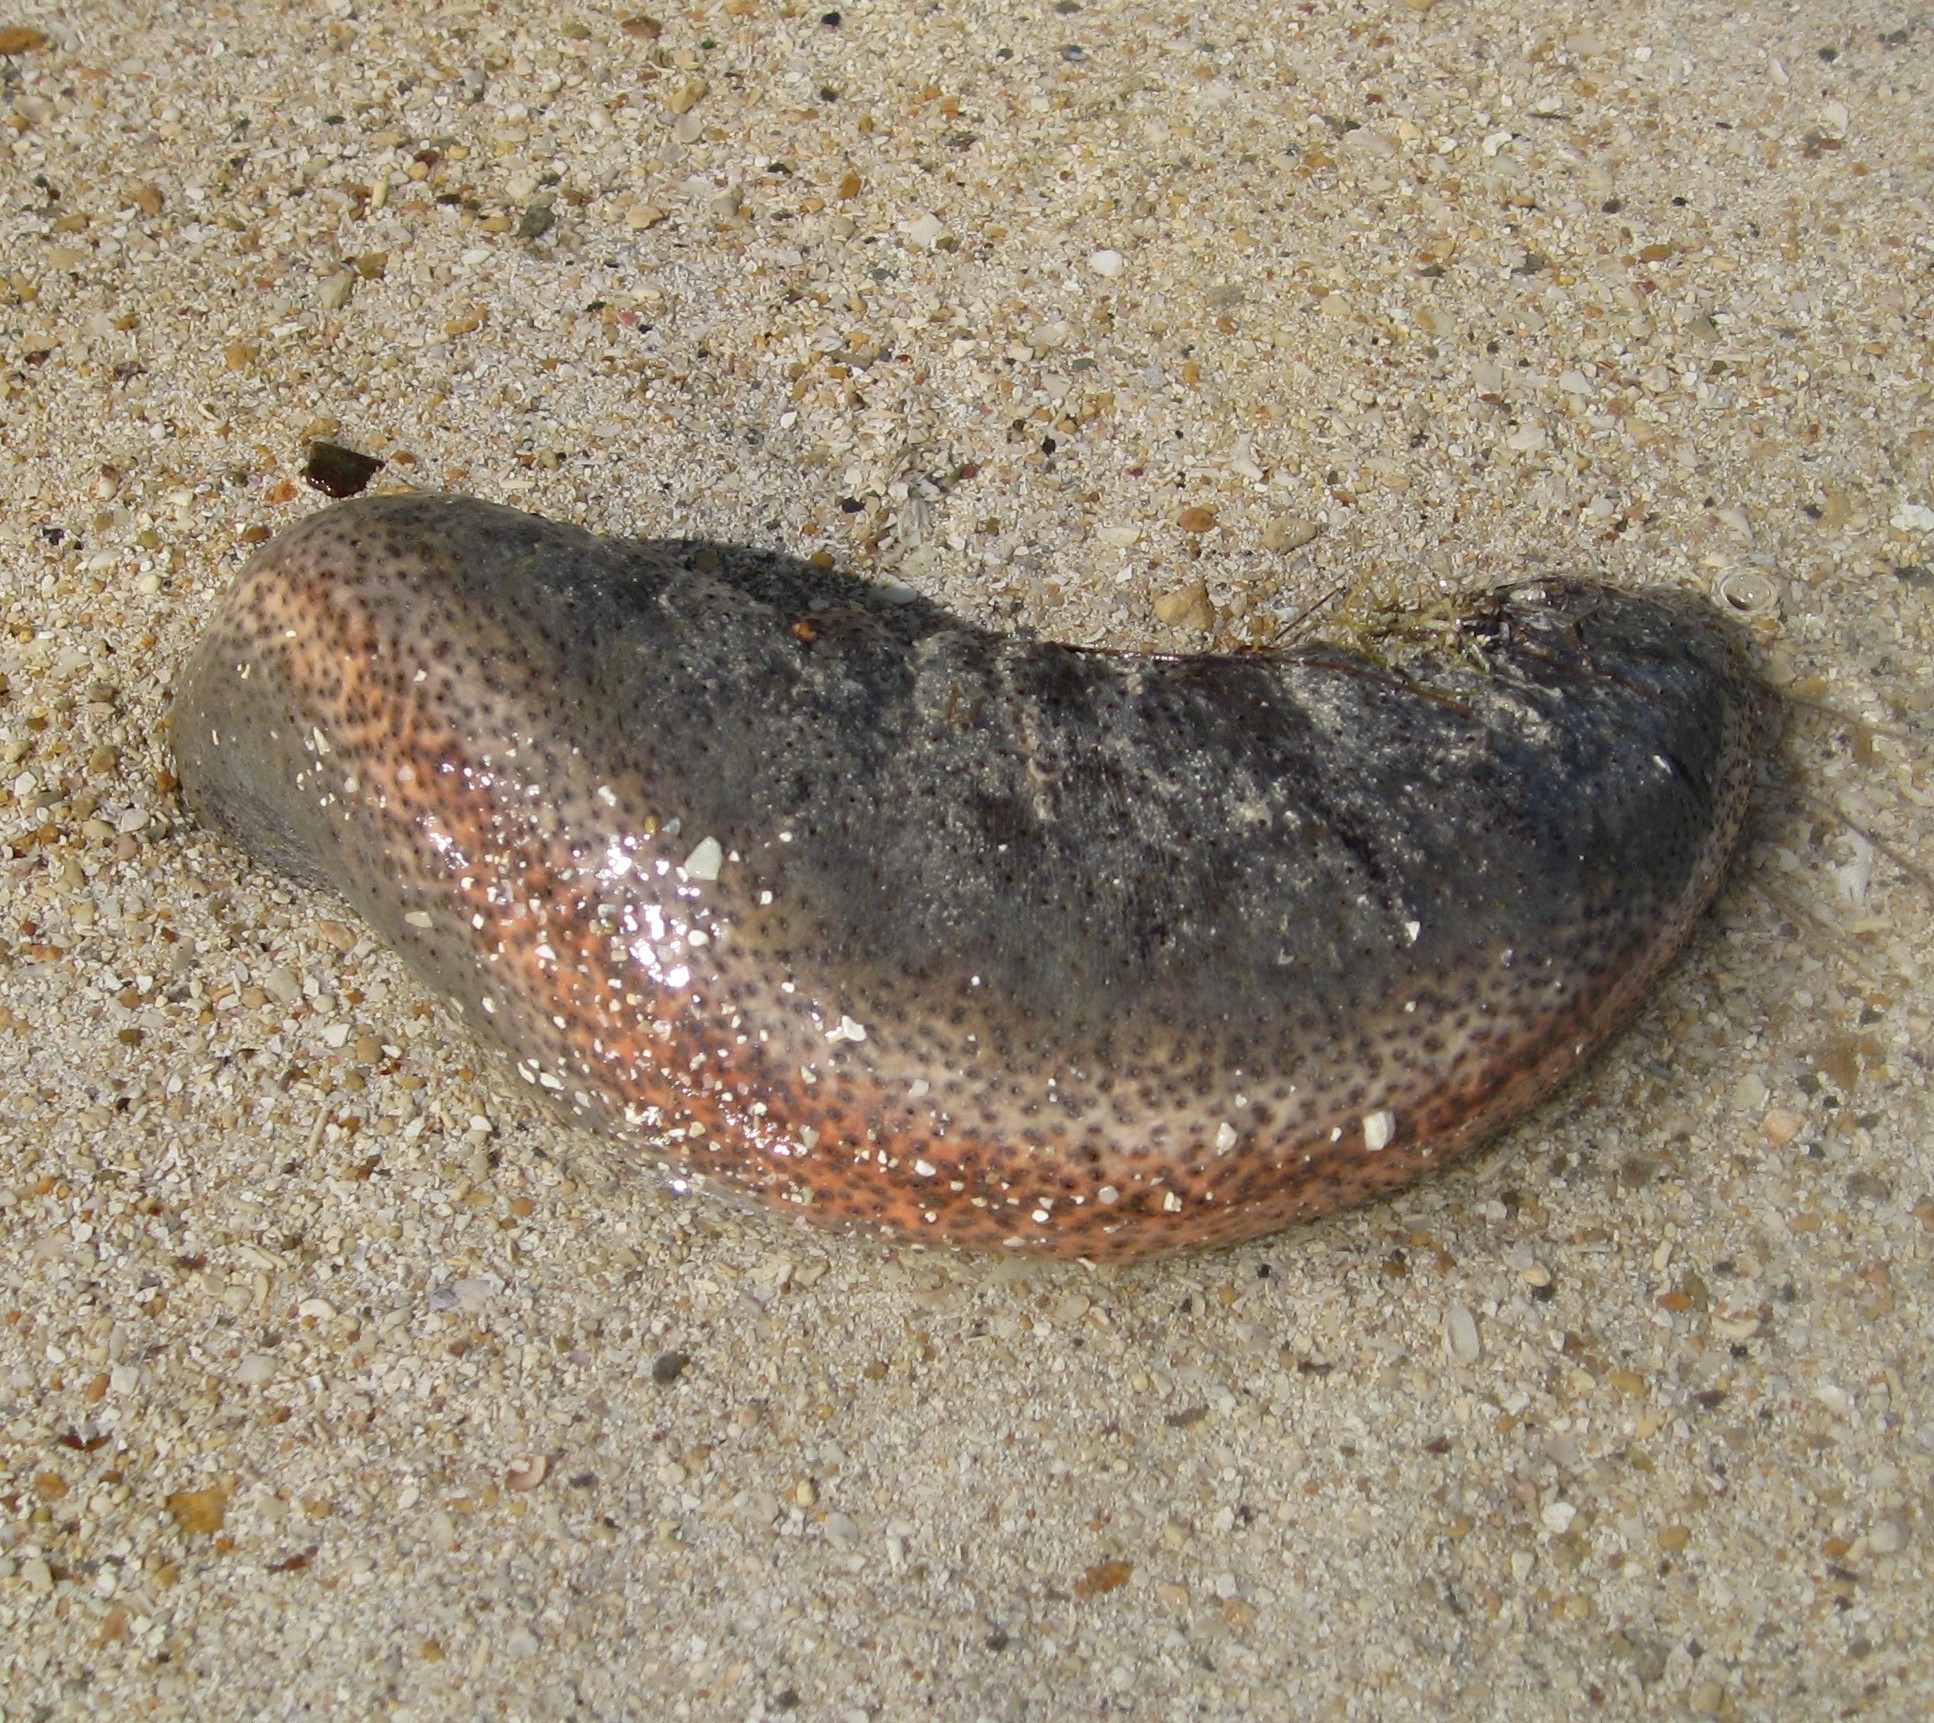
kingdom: Animalia
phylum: Echinodermata
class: Holothuroidea
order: Holothuriida
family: Holothuriidae
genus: Holothuria
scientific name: Holothuria mexicana
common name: Donkey dung sea cucumber
